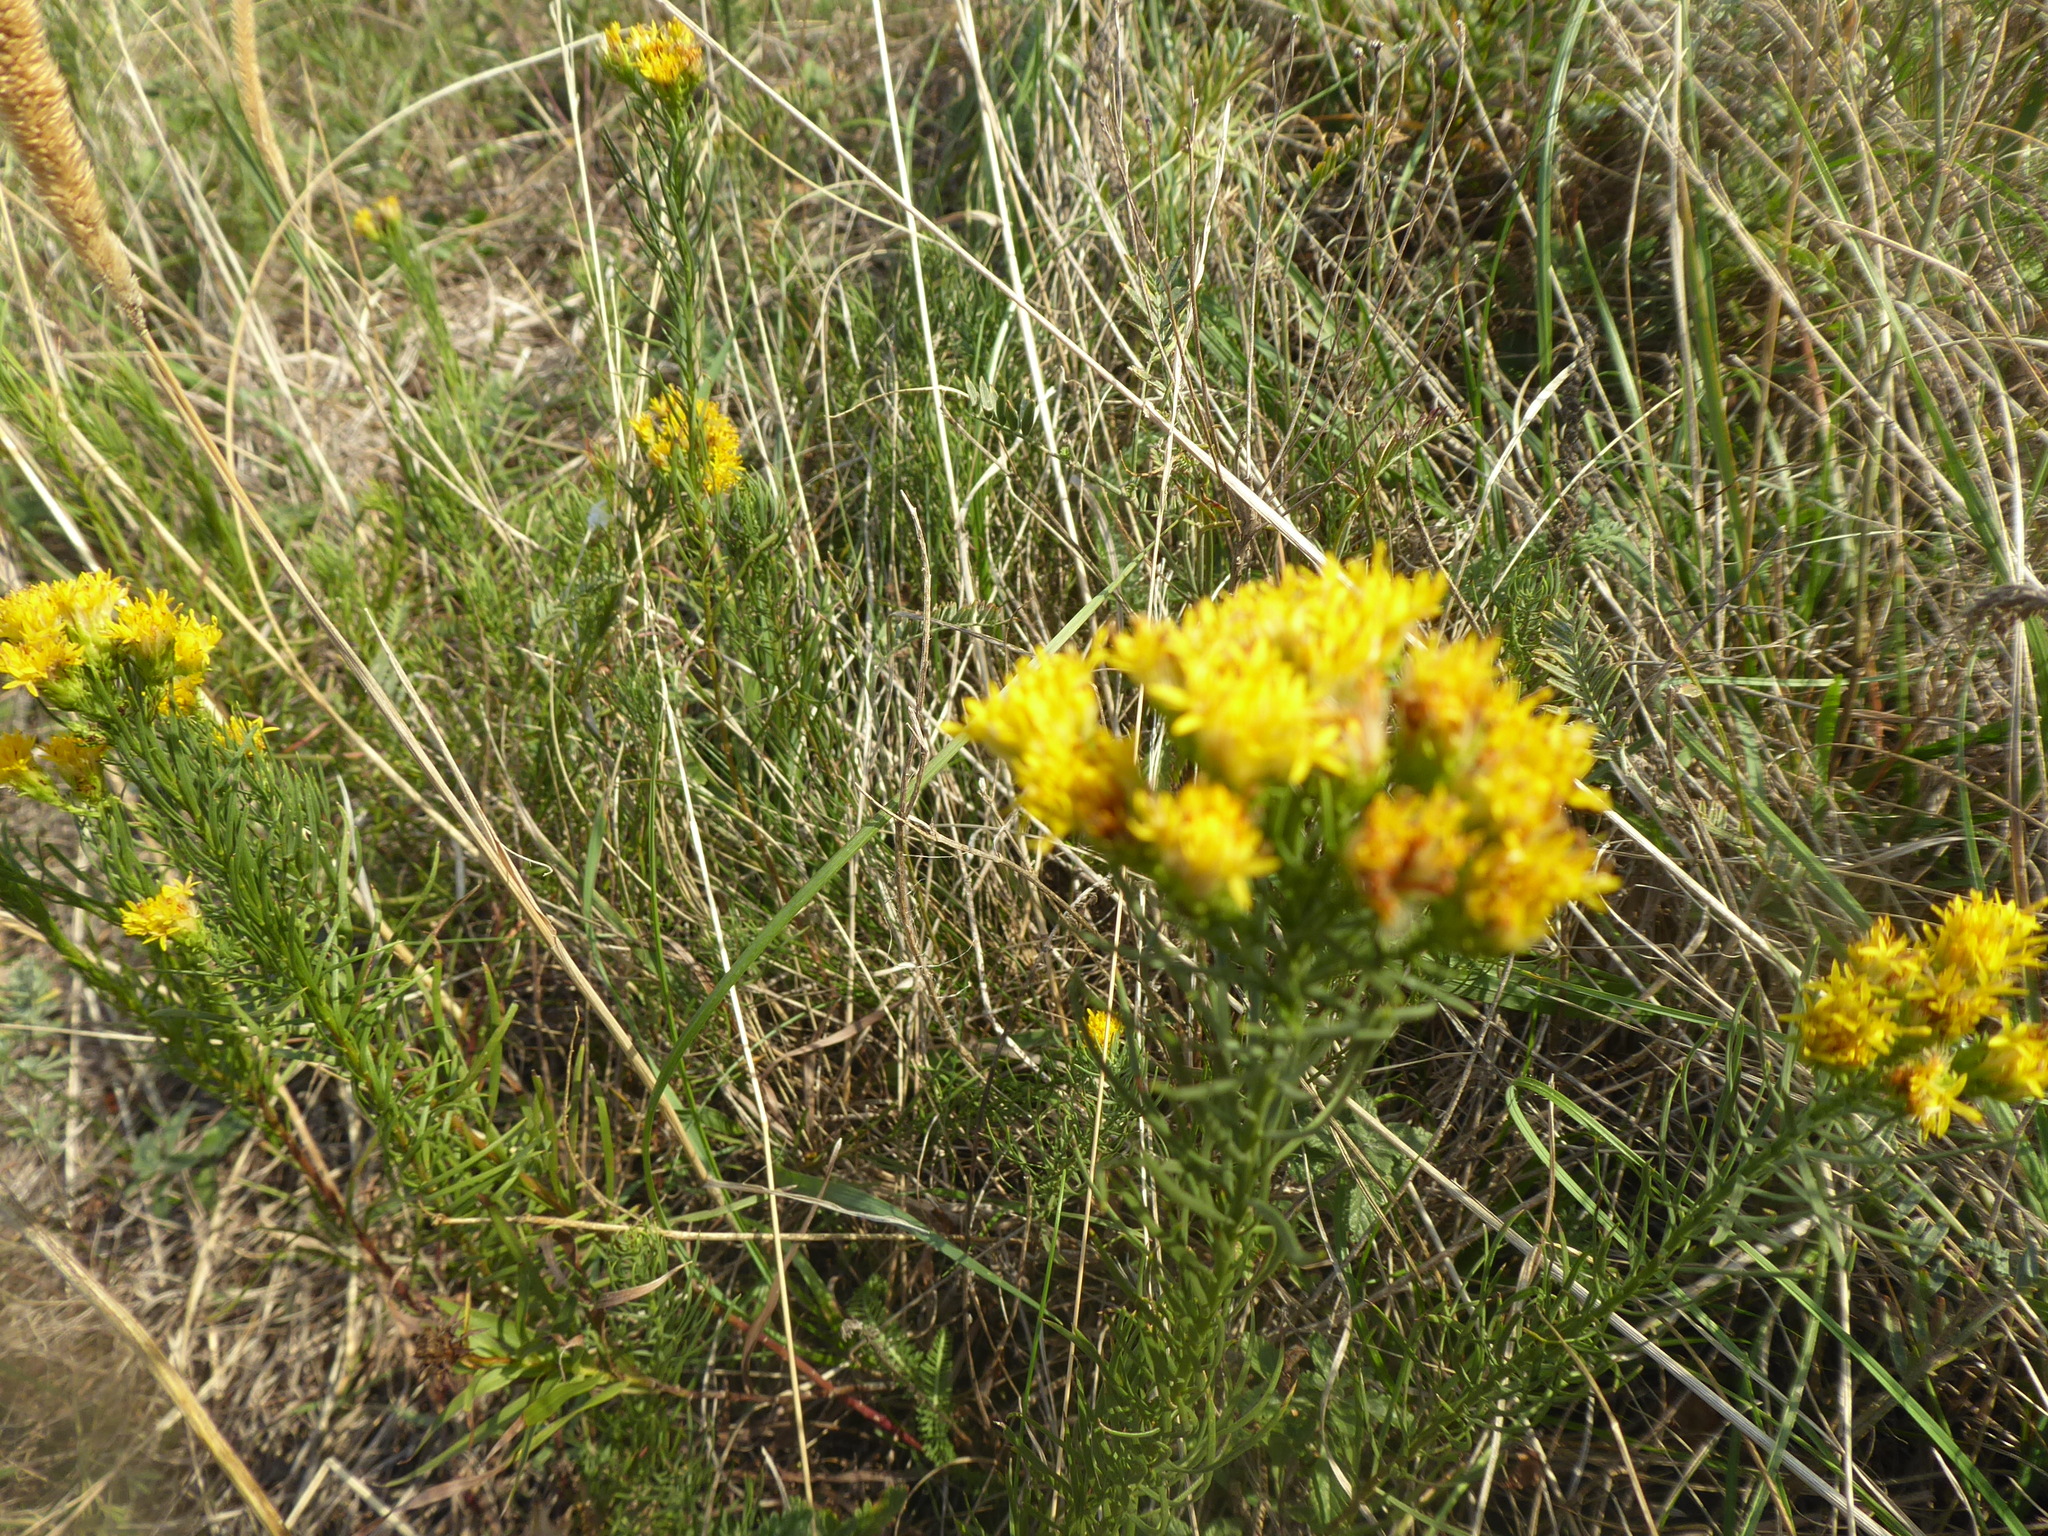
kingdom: Plantae
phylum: Tracheophyta
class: Magnoliopsida
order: Asterales
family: Asteraceae
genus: Galatella
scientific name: Galatella linosyris
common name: Goldilocks aster
